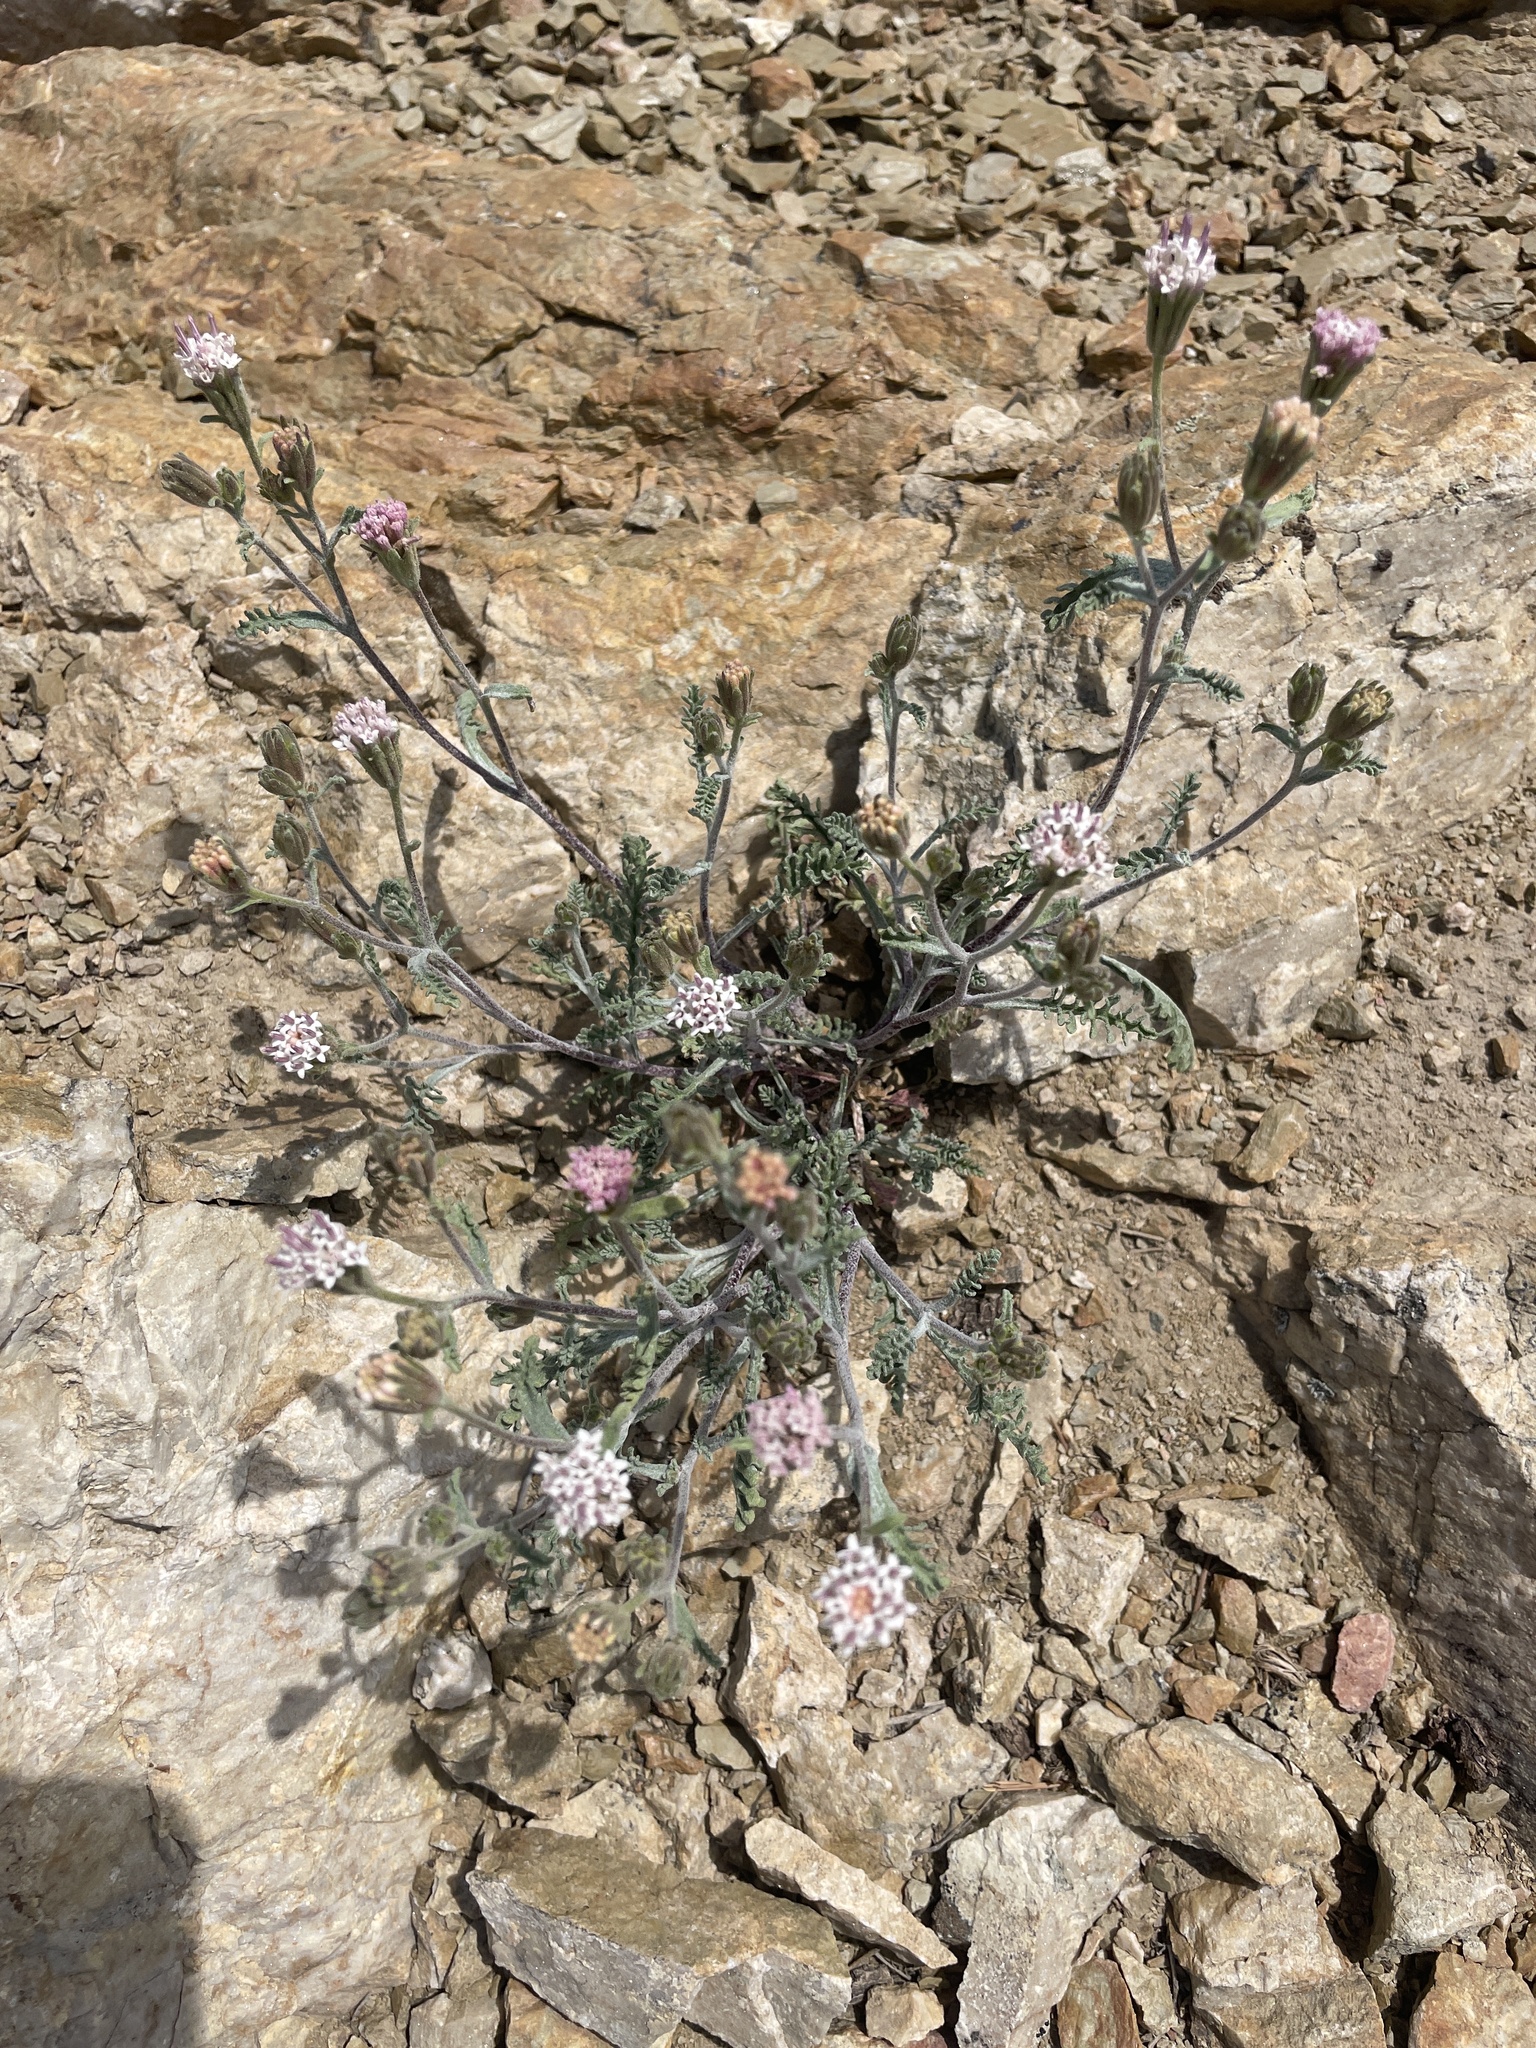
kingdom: Plantae
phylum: Tracheophyta
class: Magnoliopsida
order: Asterales
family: Asteraceae
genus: Chaenactis
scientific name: Chaenactis douglasii
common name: Hoary pincushion
